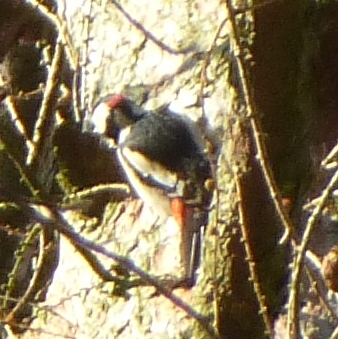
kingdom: Animalia
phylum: Chordata
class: Aves
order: Piciformes
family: Picidae
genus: Dendrocopos
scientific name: Dendrocopos major
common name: Great spotted woodpecker
